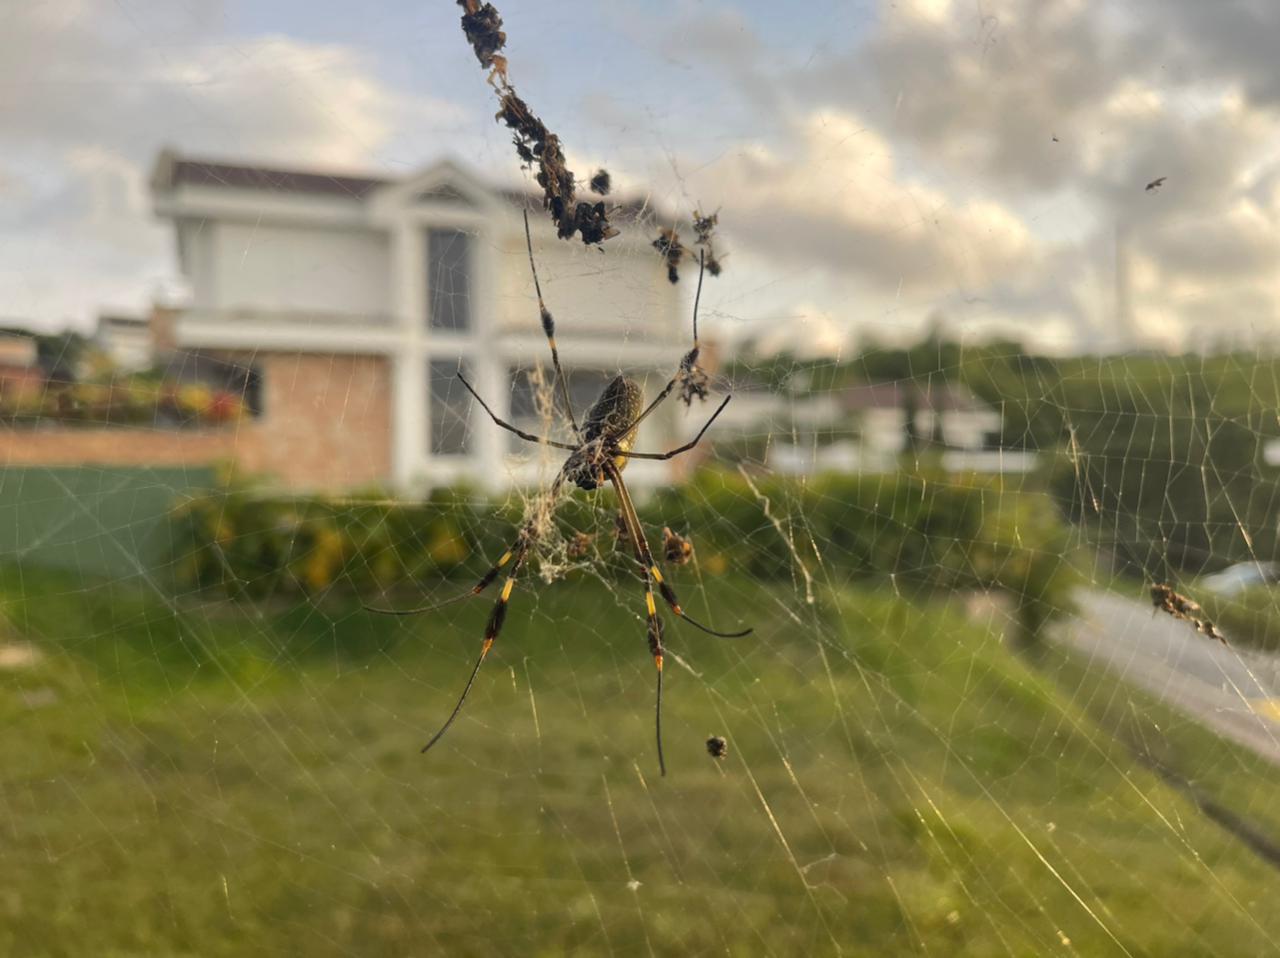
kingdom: Animalia
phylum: Arthropoda
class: Arachnida
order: Araneae
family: Araneidae
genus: Trichonephila
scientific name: Trichonephila clavipes
